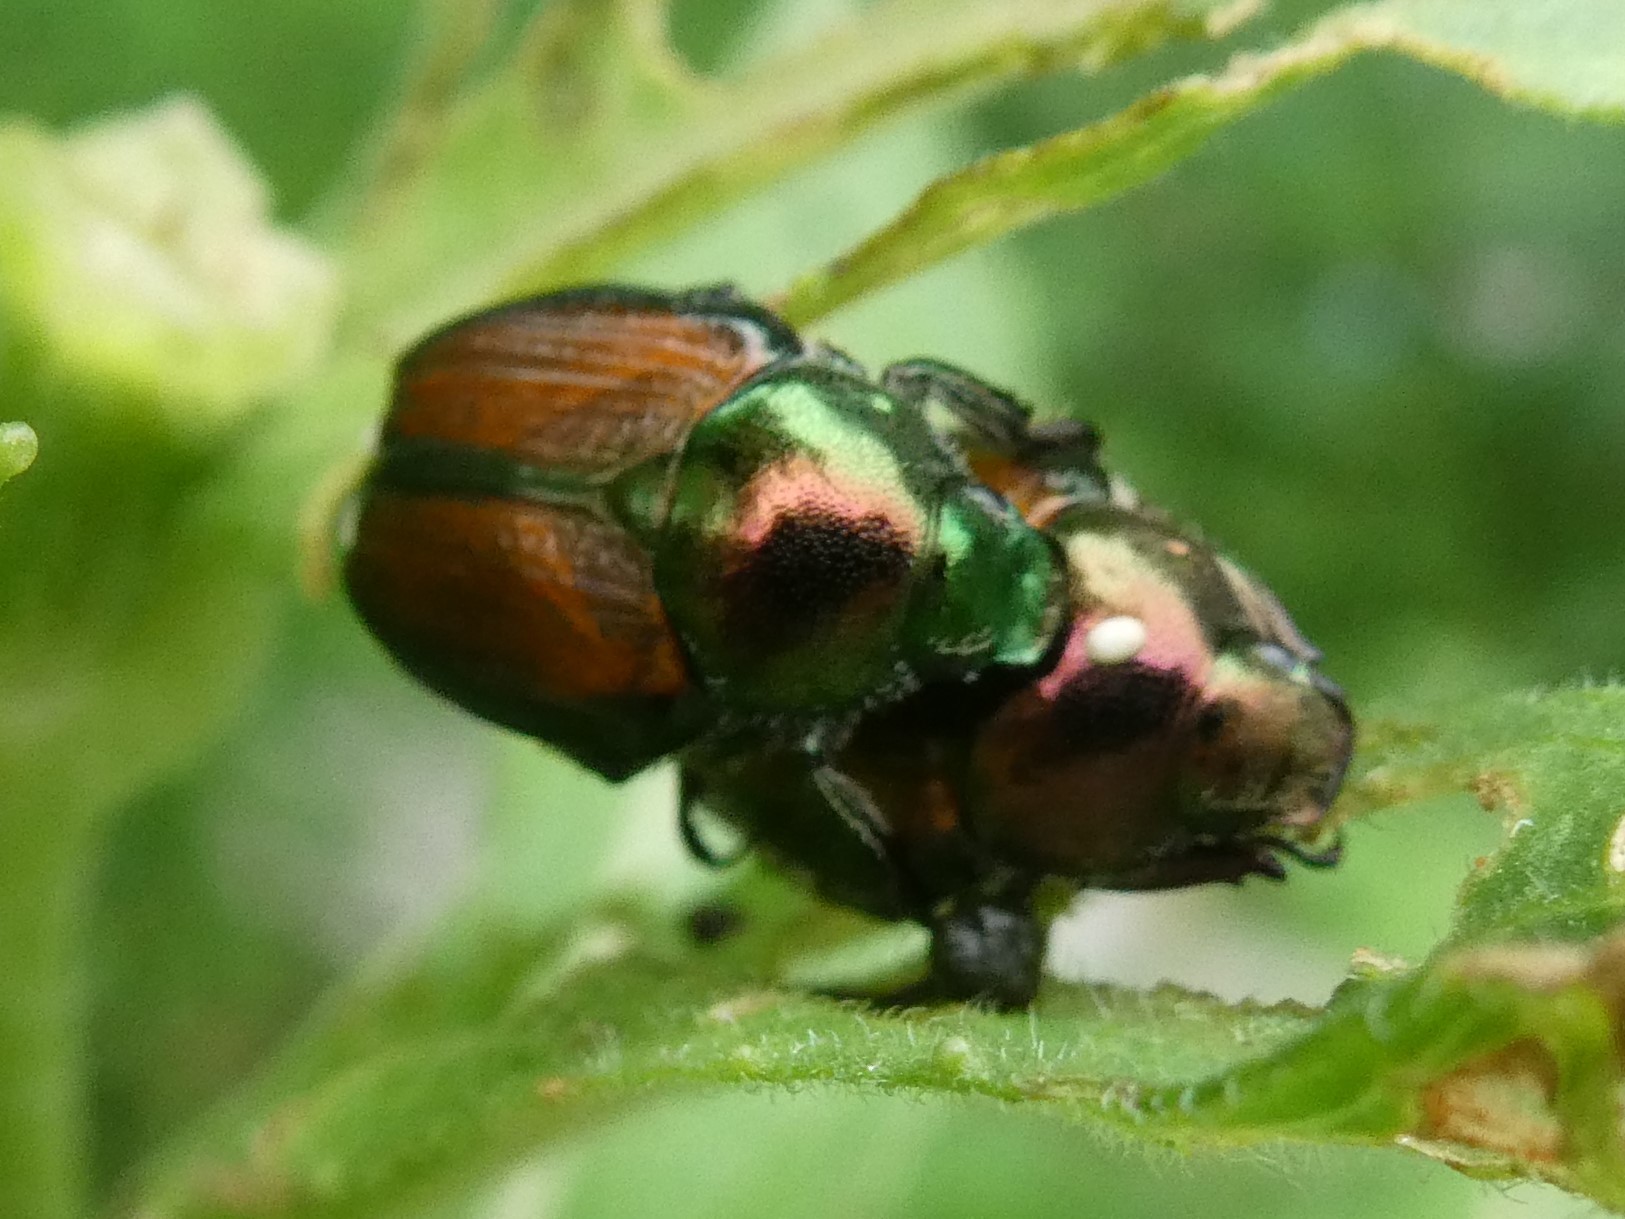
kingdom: Animalia
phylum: Arthropoda
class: Insecta
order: Diptera
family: Tachinidae
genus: Istocheta
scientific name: Istocheta aldrichi
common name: Parasitic wasp
